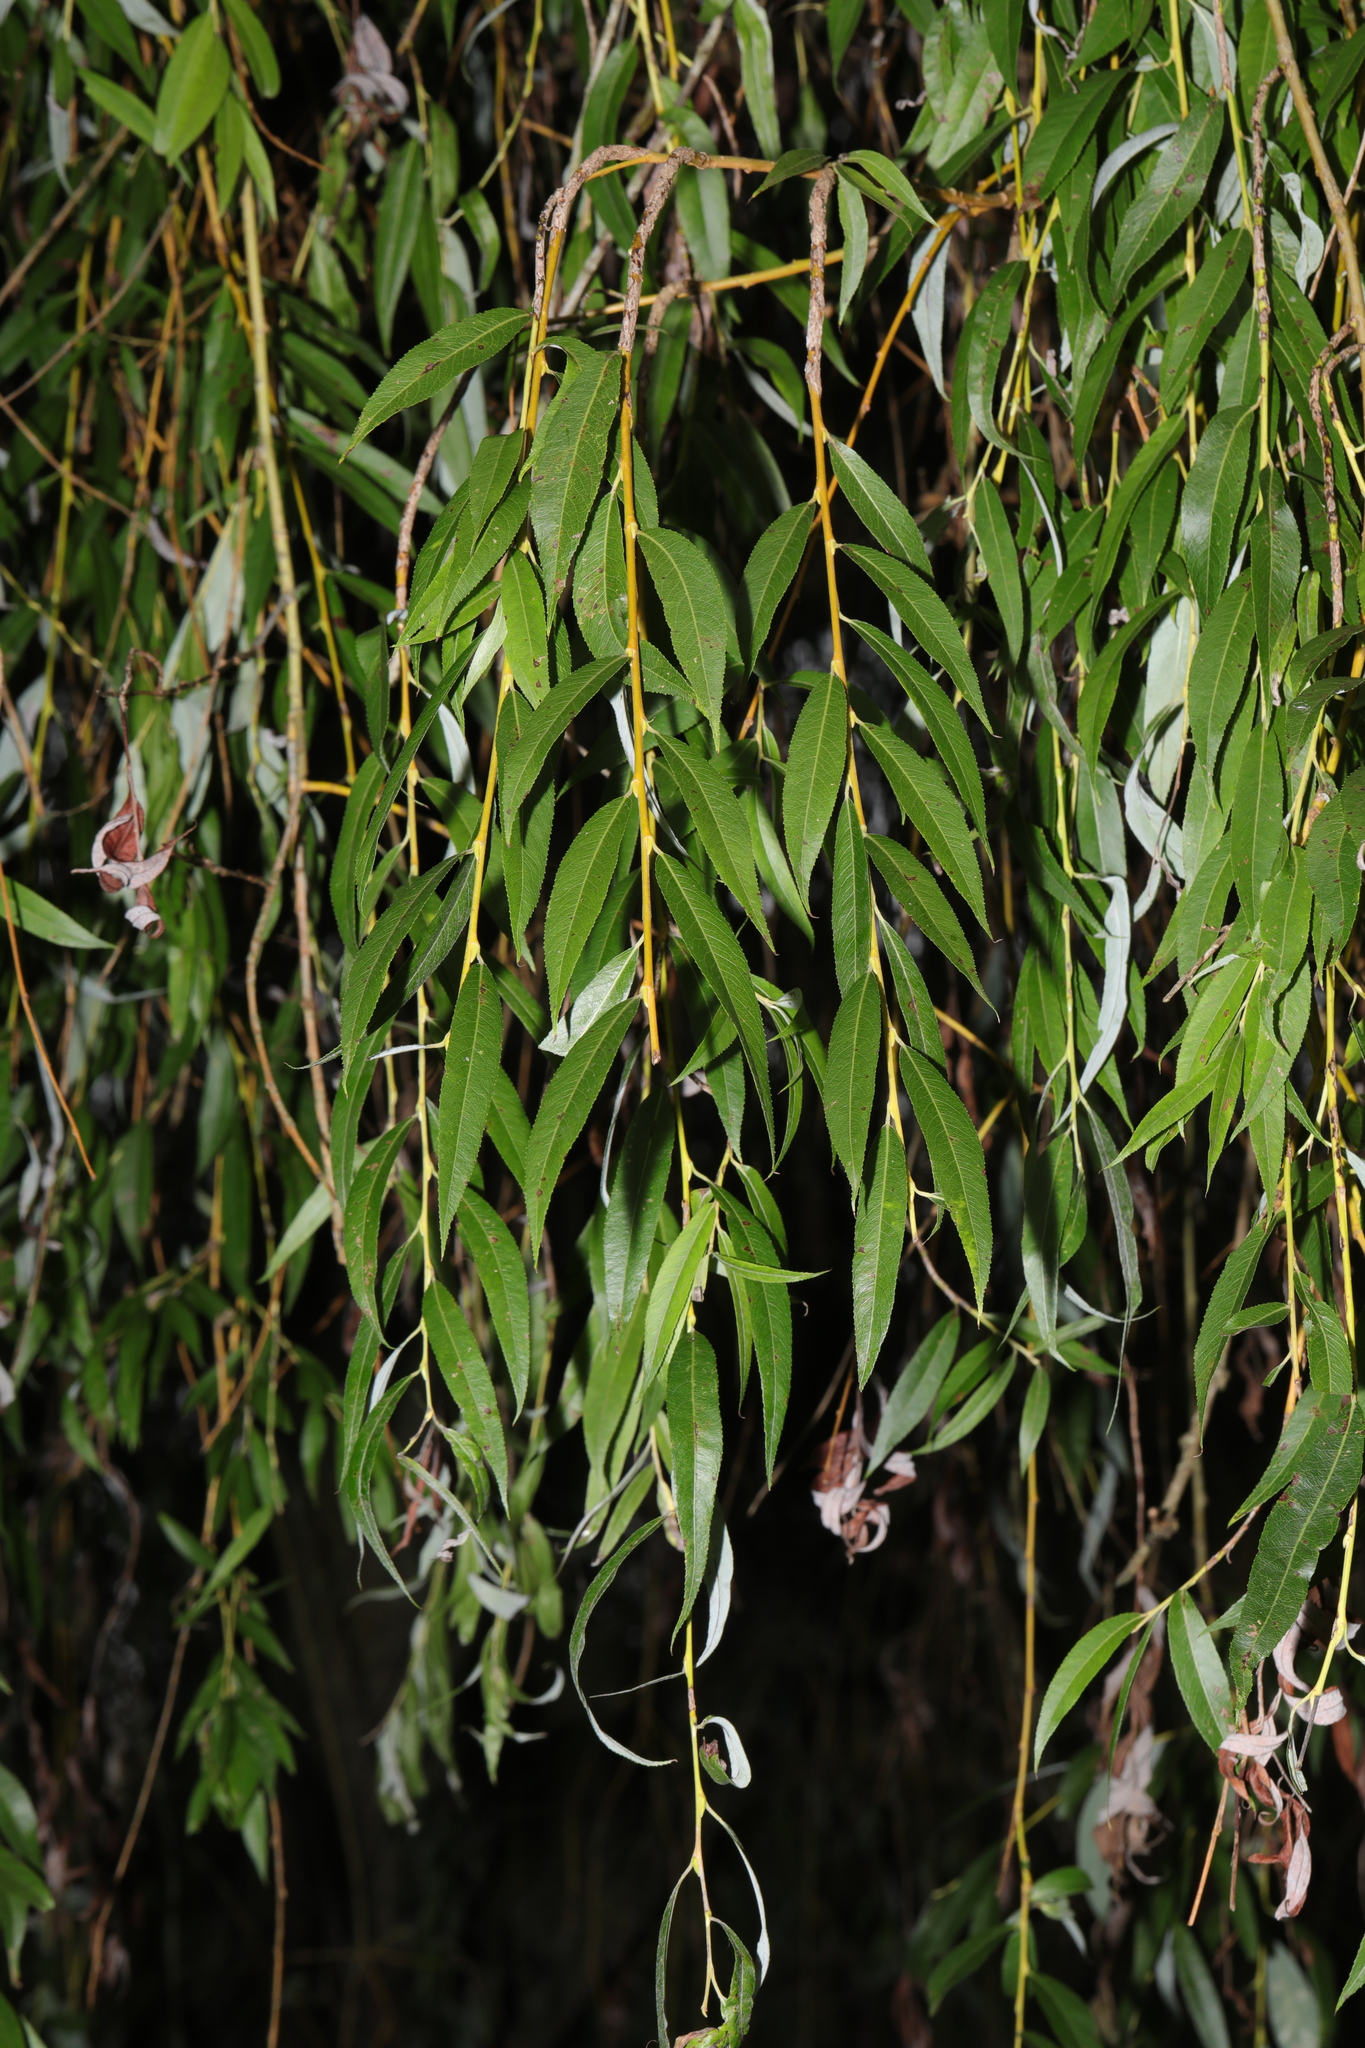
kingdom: Plantae
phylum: Tracheophyta
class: Magnoliopsida
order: Malpighiales
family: Salicaceae
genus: Salix
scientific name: Salix pendulina
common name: Wisconsin weeping willow
